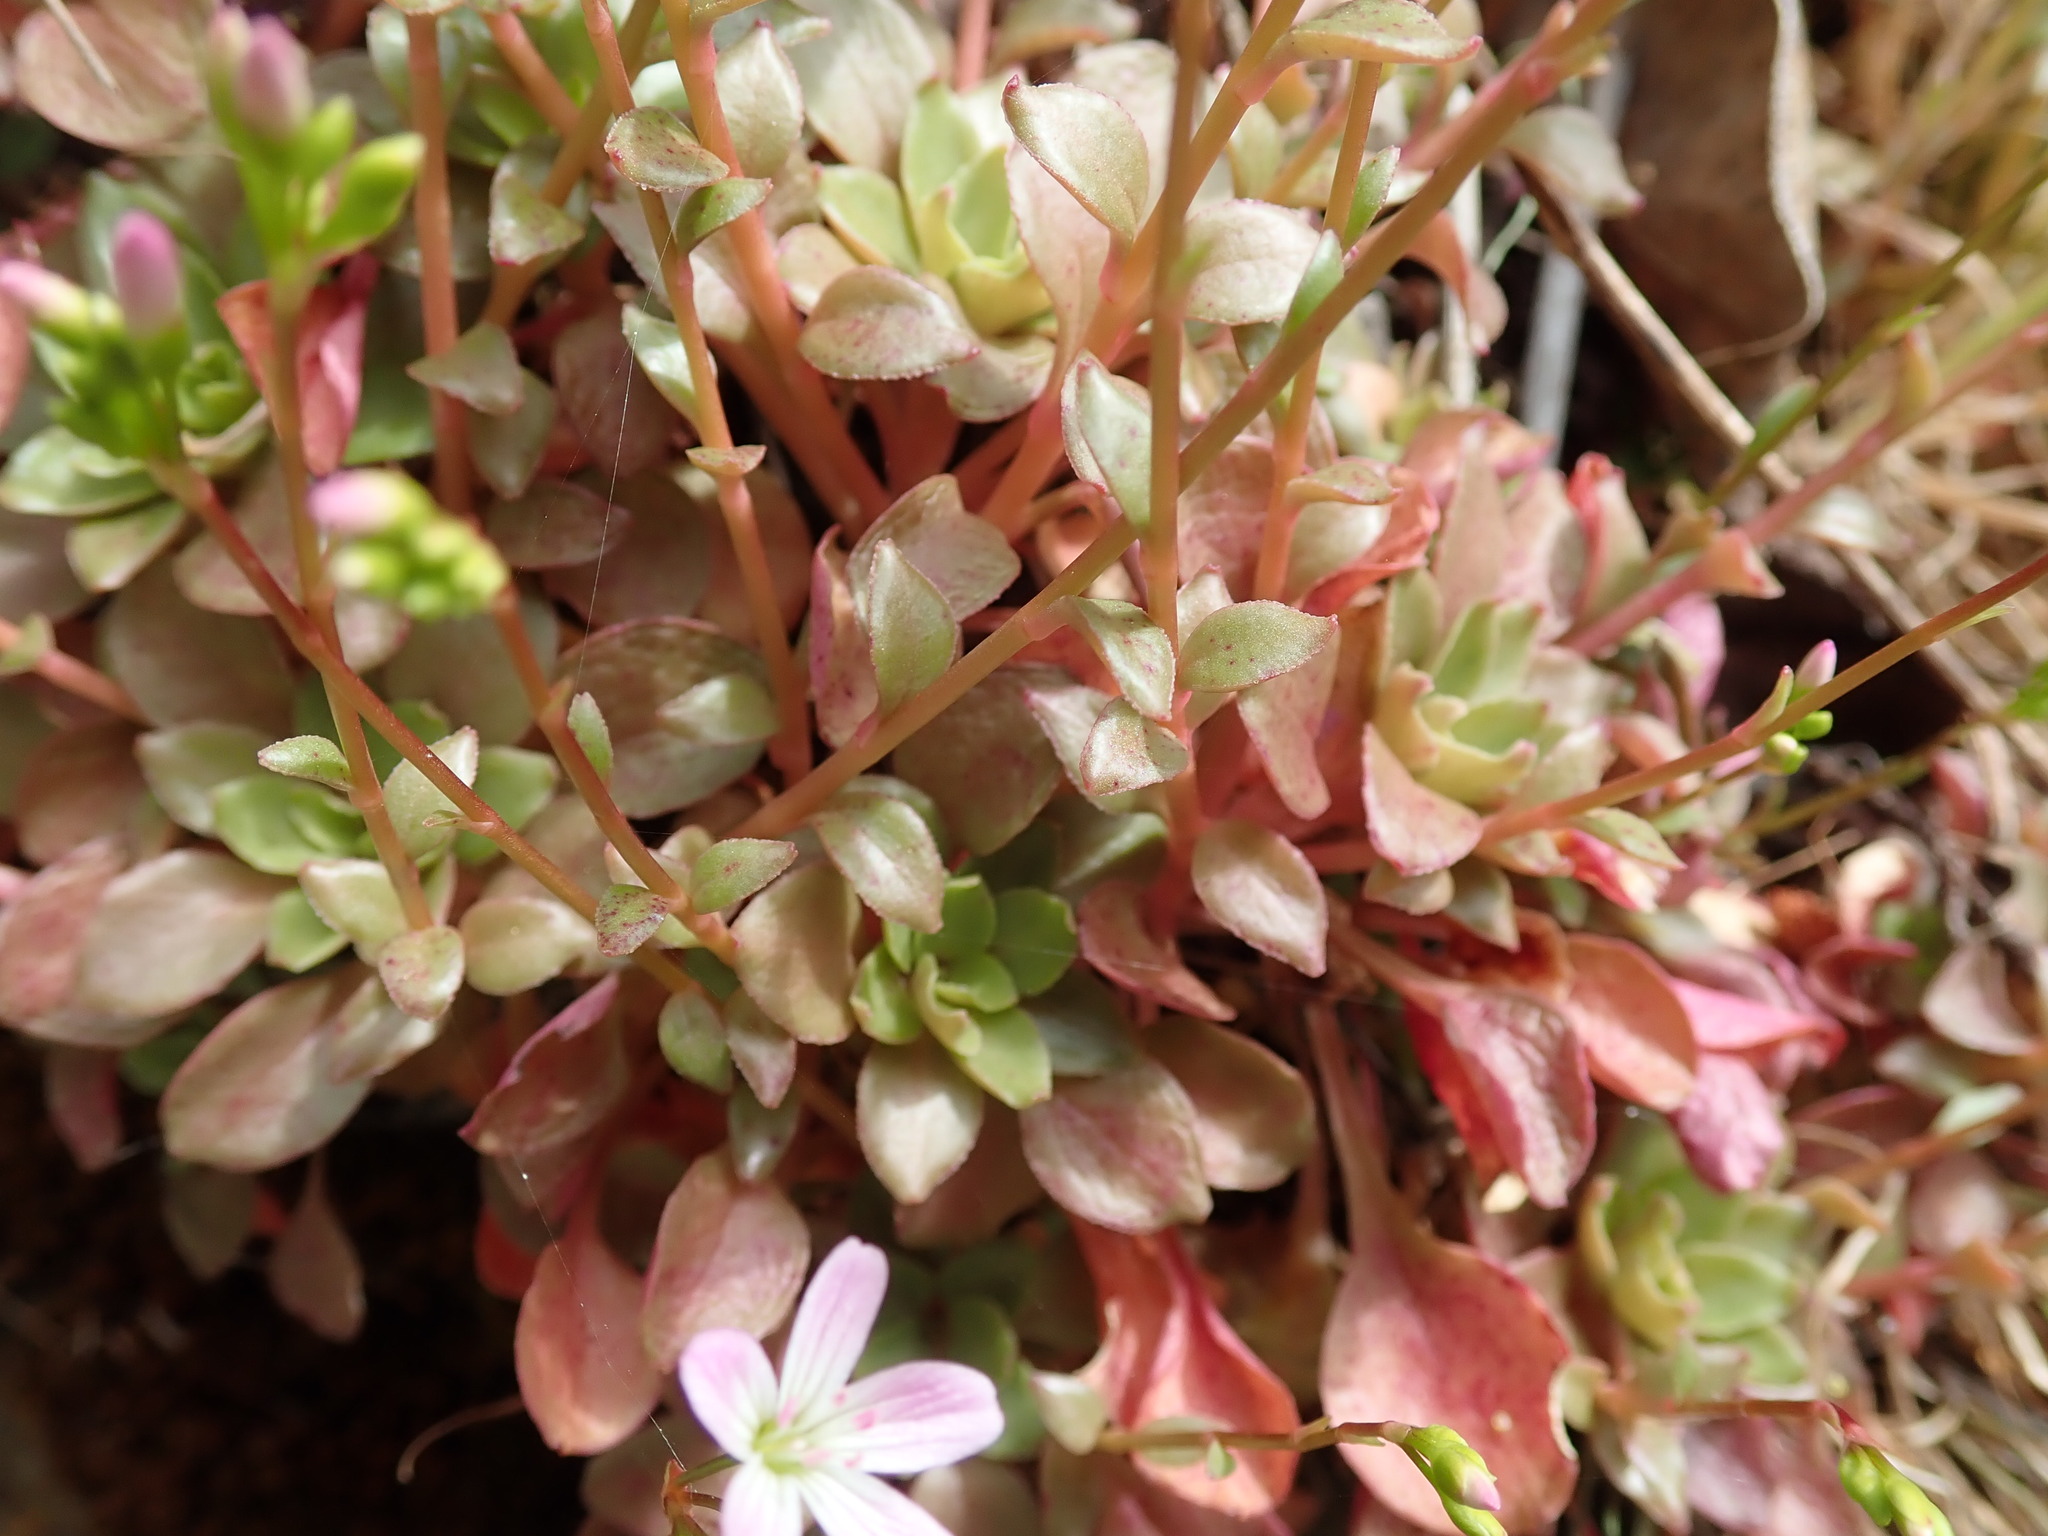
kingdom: Plantae
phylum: Tracheophyta
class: Magnoliopsida
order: Caryophyllales
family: Montiaceae
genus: Montia
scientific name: Montia parvifolia
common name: Small-leaved blinks
